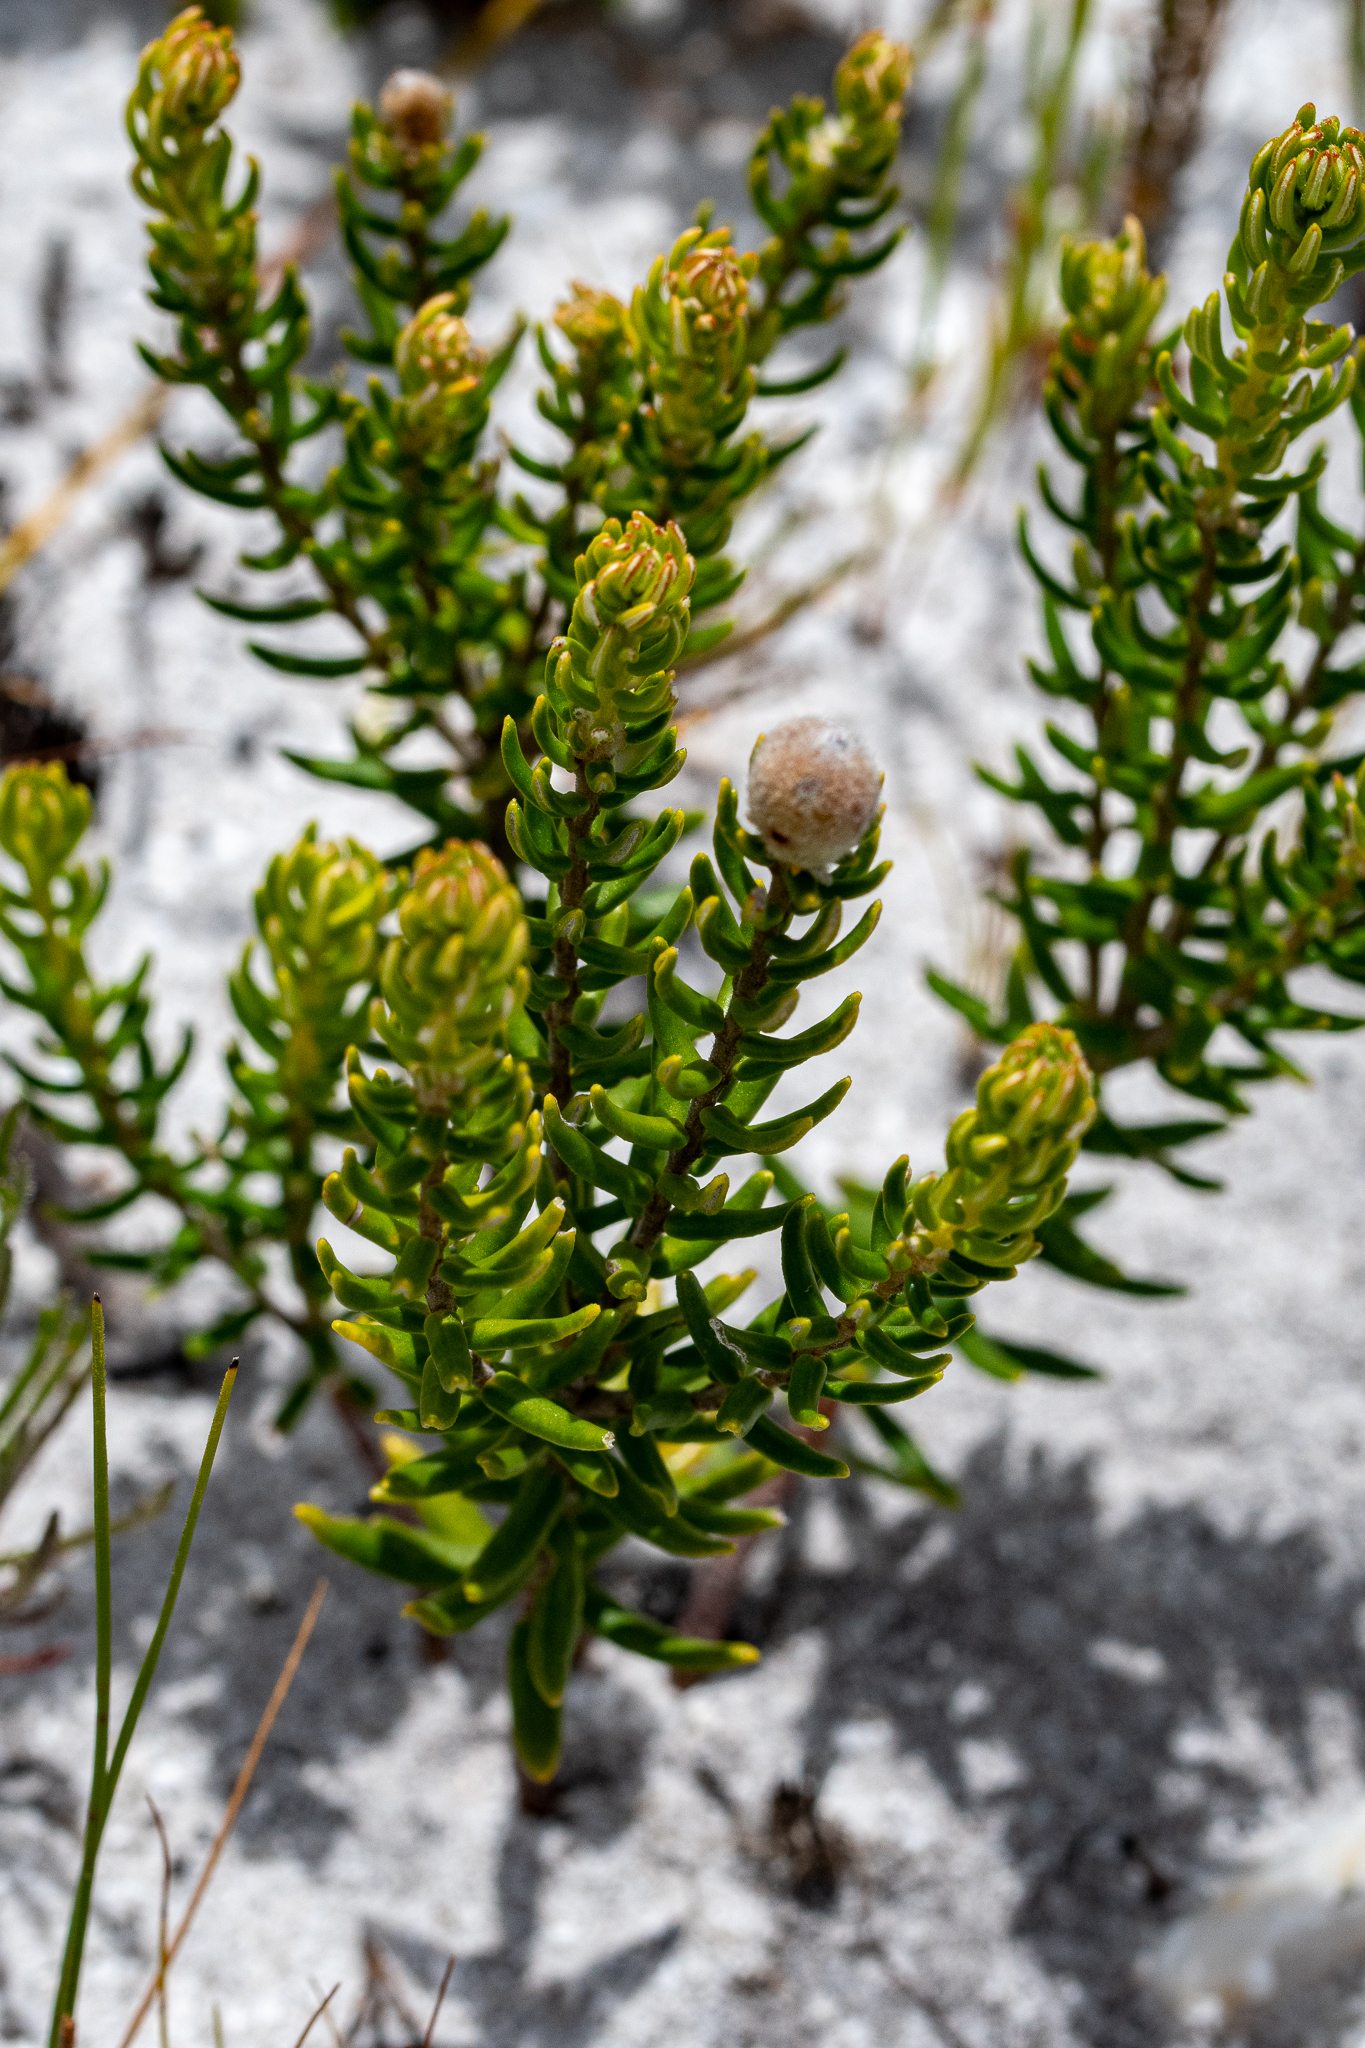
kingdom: Plantae
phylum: Tracheophyta
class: Magnoliopsida
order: Rosales
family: Rhamnaceae
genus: Phylica
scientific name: Phylica lasiocarpa
